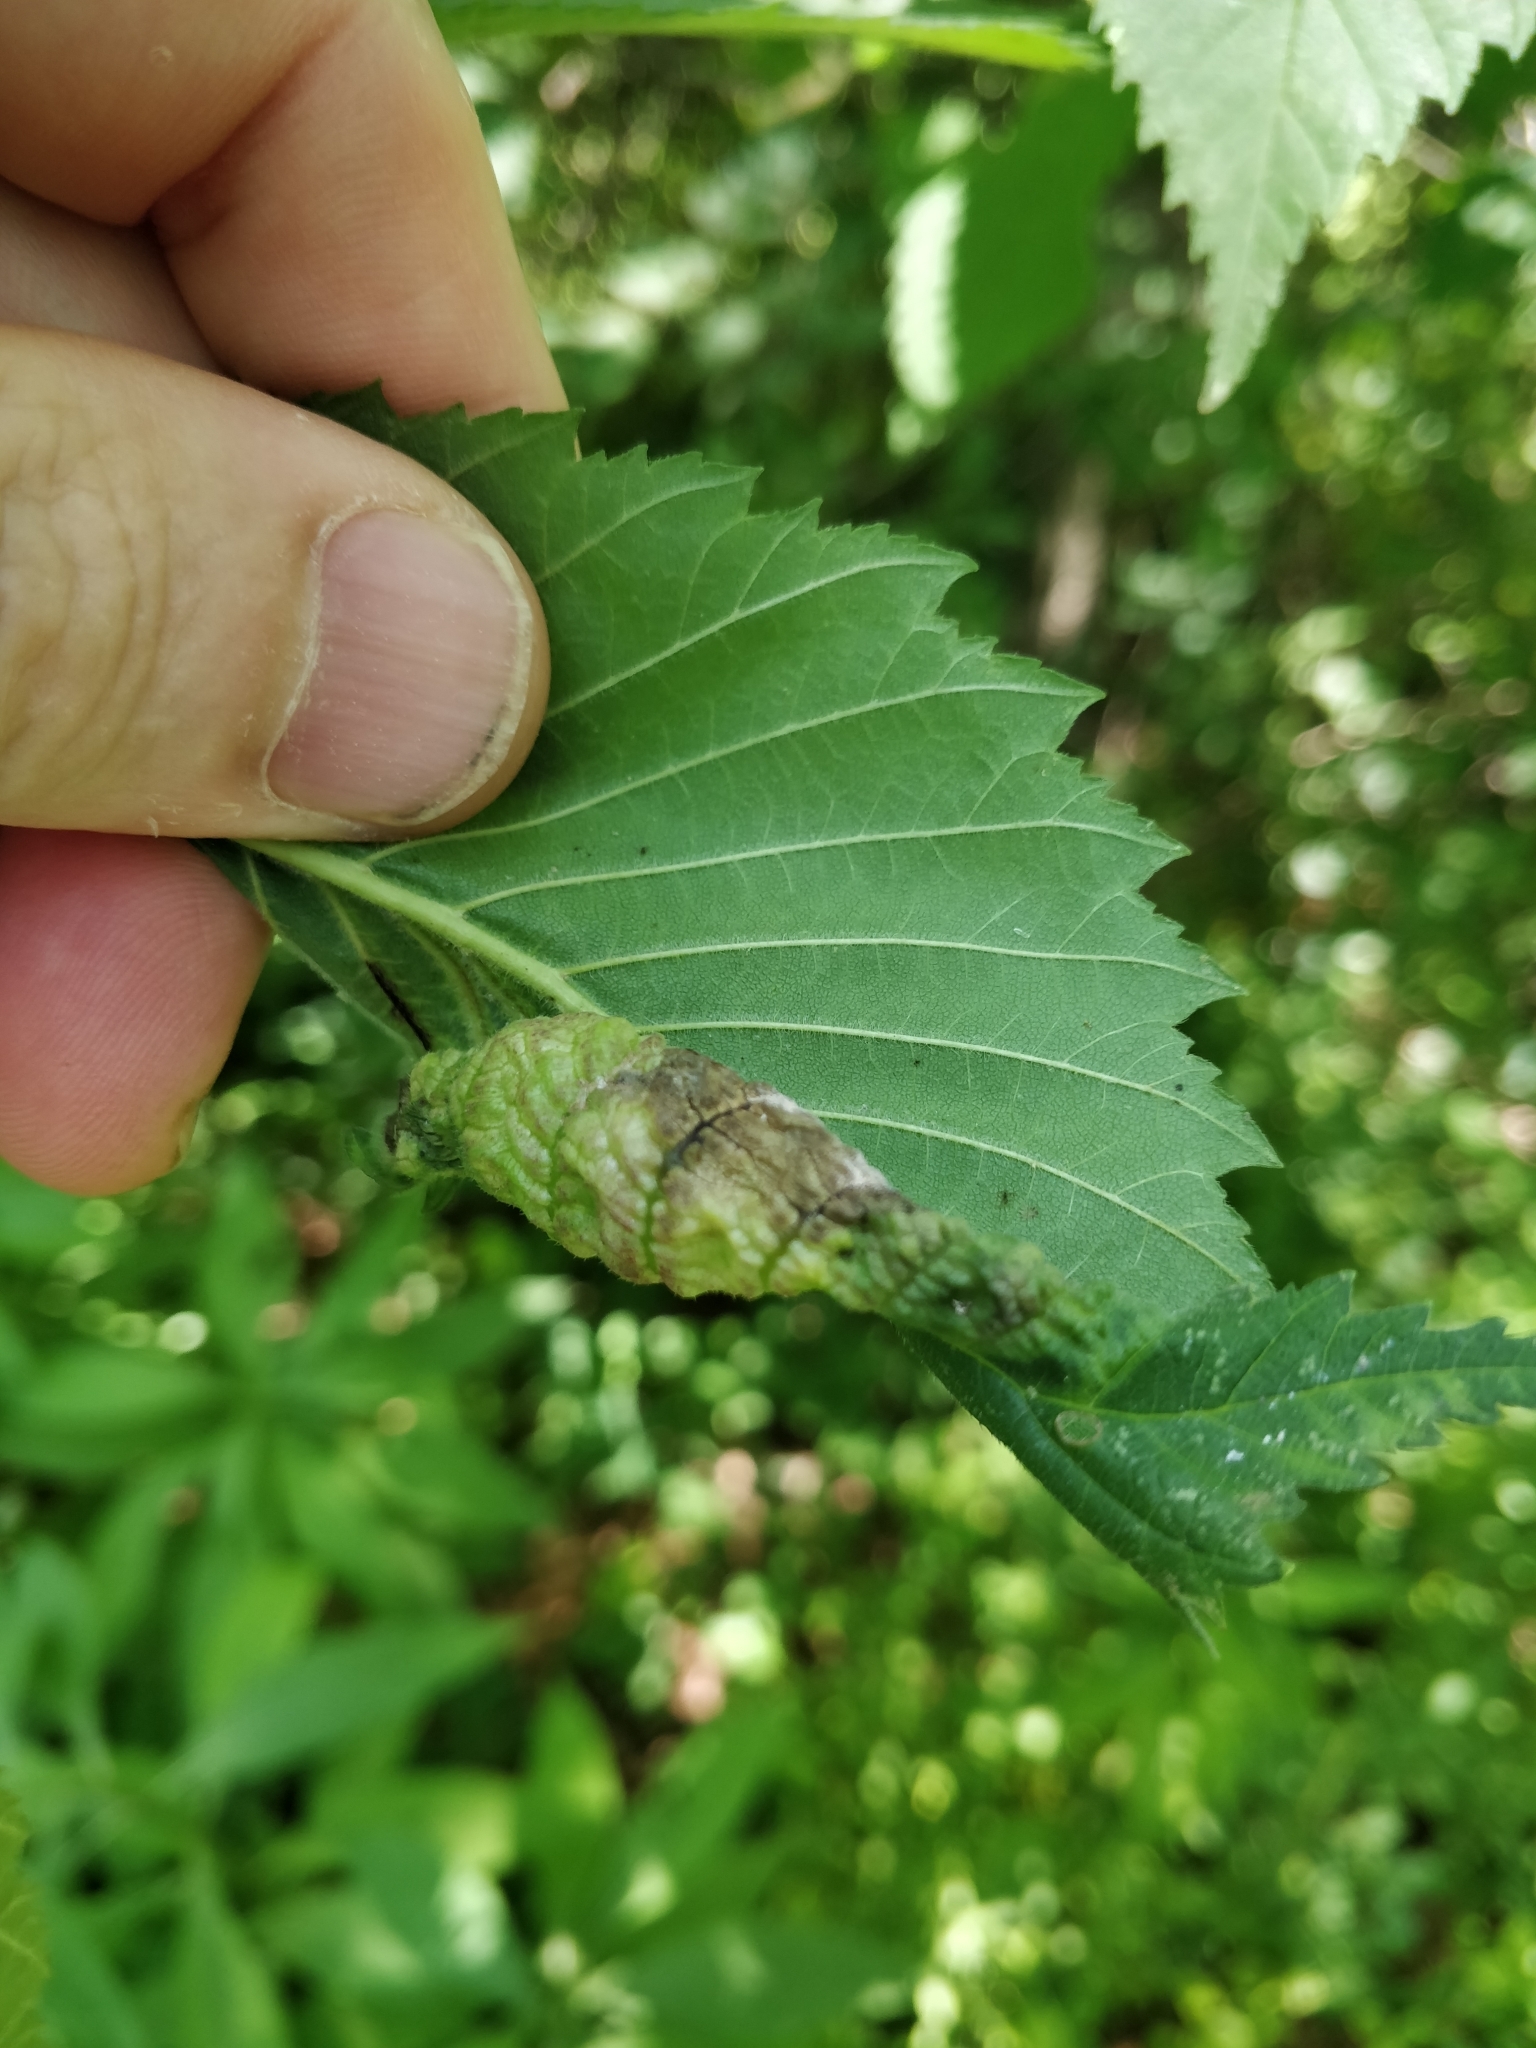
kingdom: Animalia
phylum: Arthropoda
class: Insecta
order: Hemiptera
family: Aphididae
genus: Eriosoma
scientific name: Eriosoma americanum
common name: Woolly elm aphid
